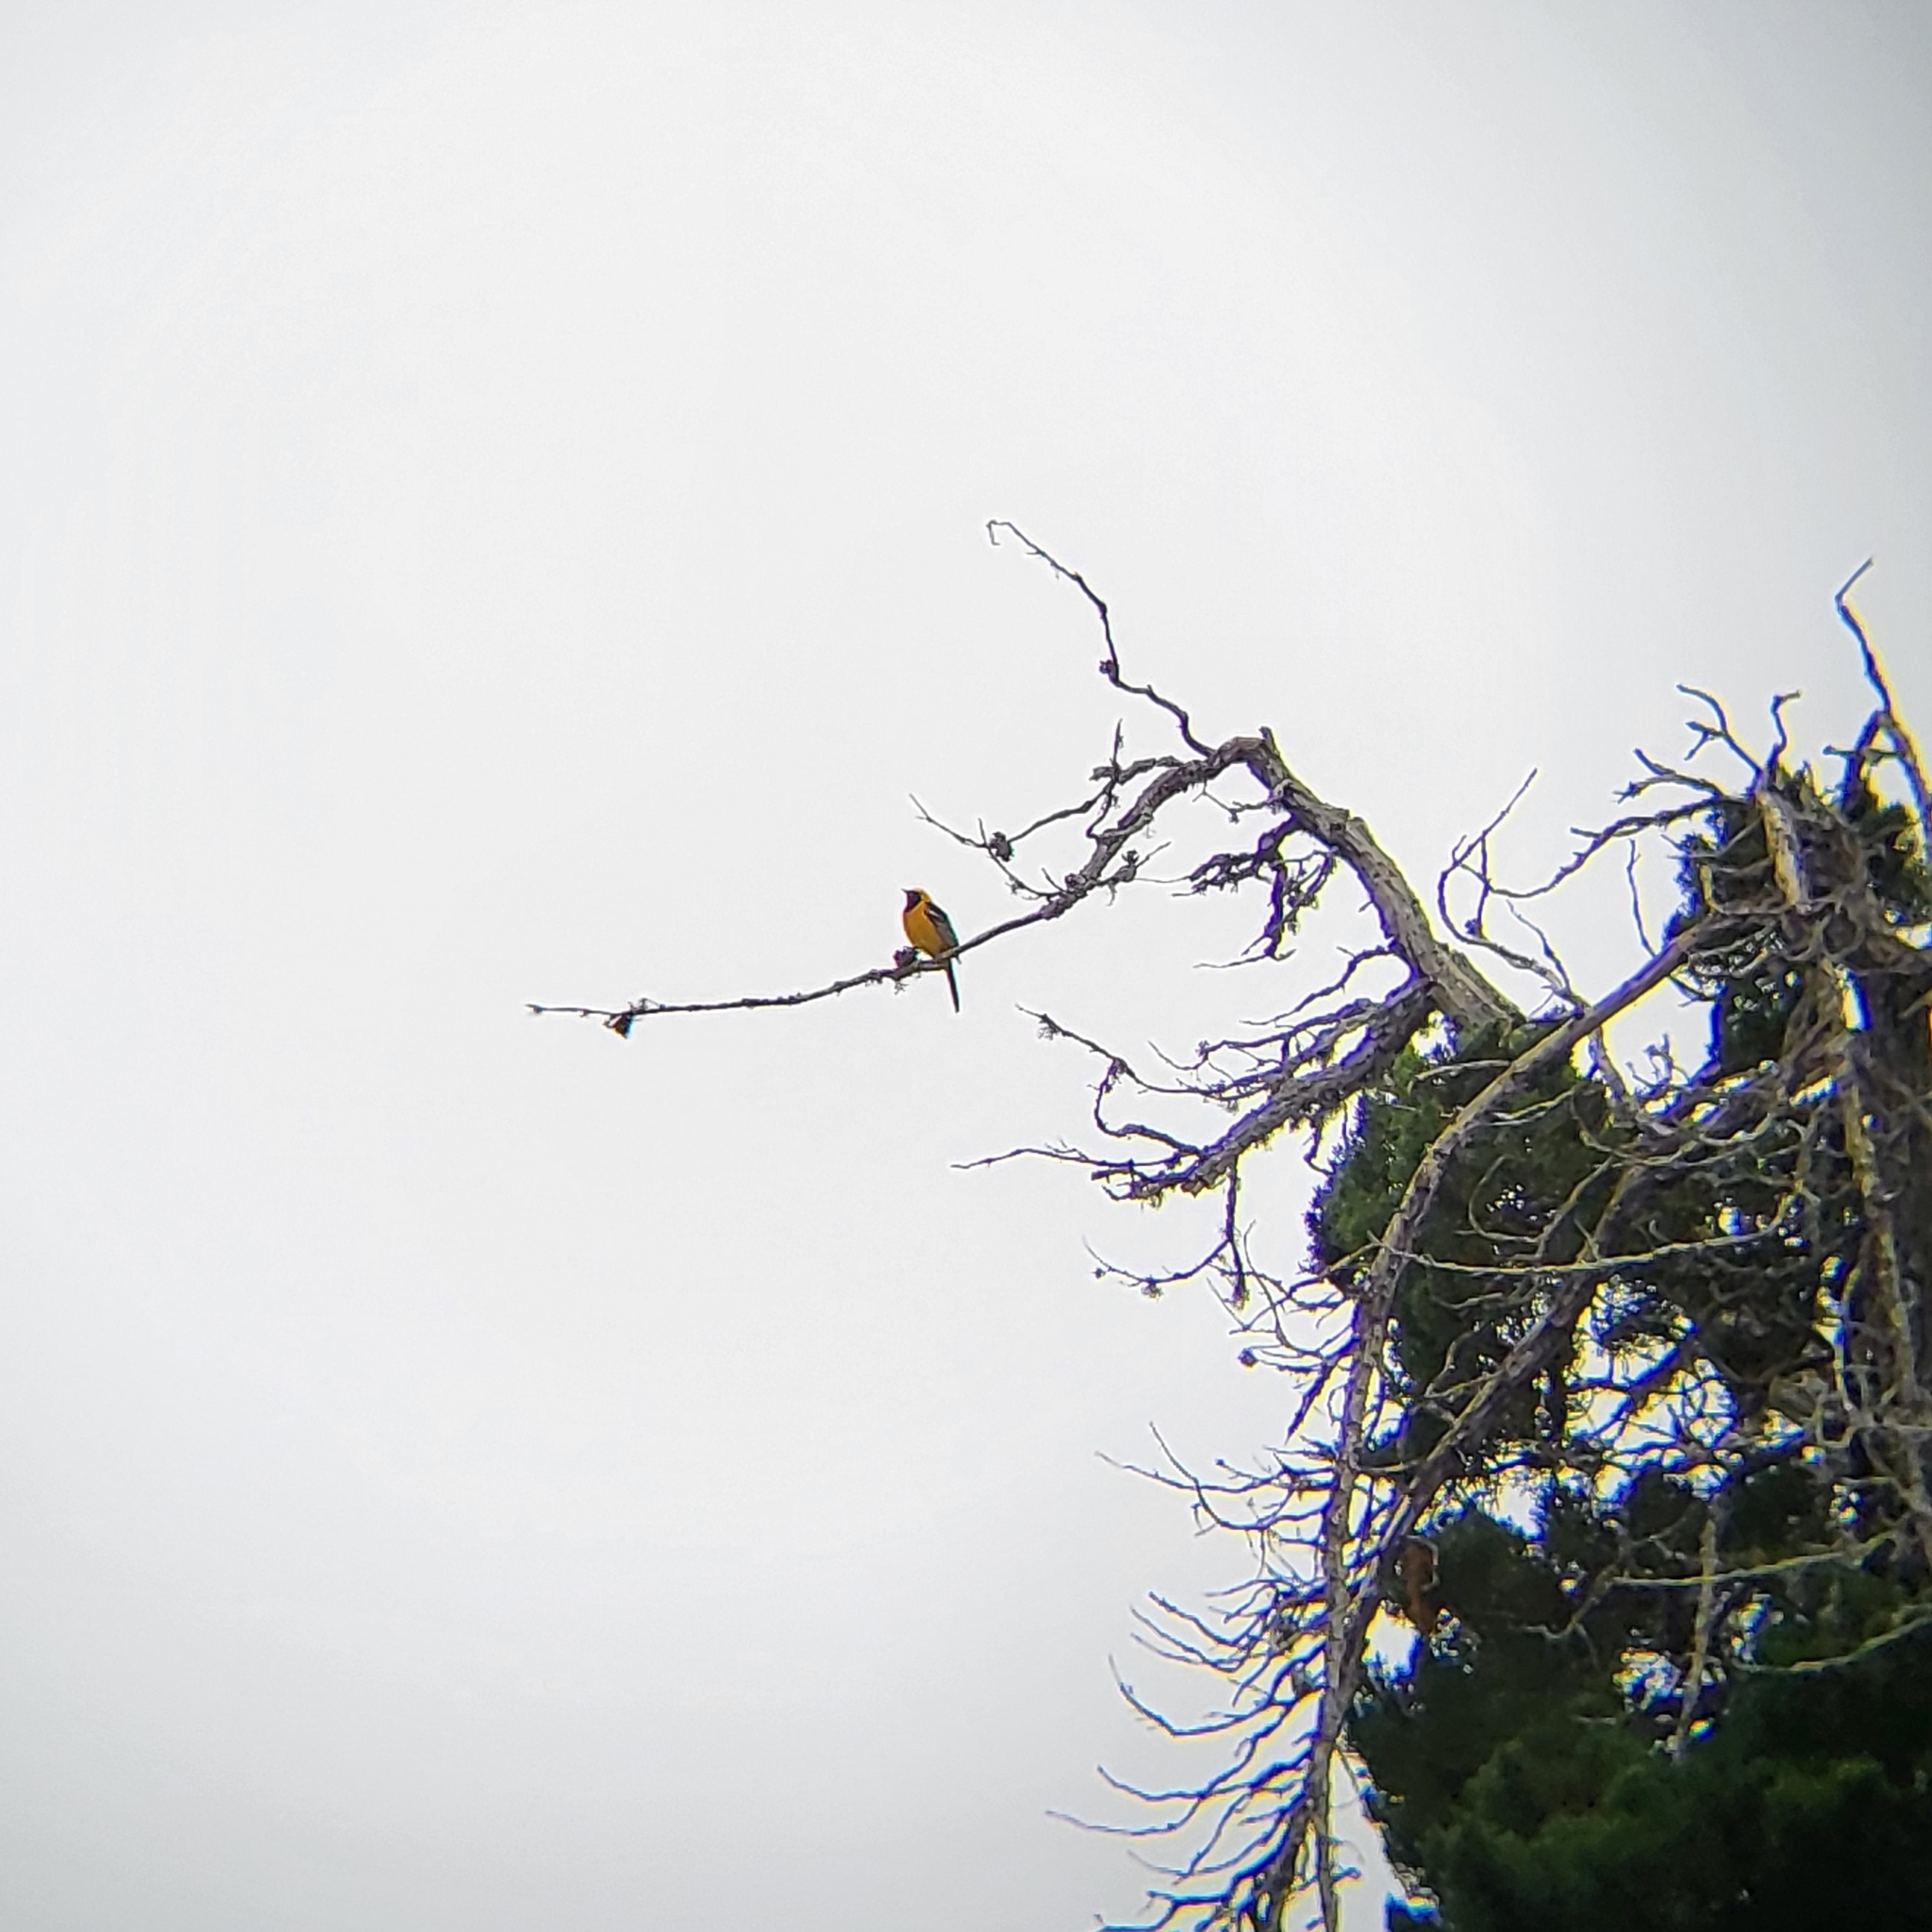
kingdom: Animalia
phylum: Chordata
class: Aves
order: Passeriformes
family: Icteridae
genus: Icterus
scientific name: Icterus cucullatus
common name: Hooded oriole
